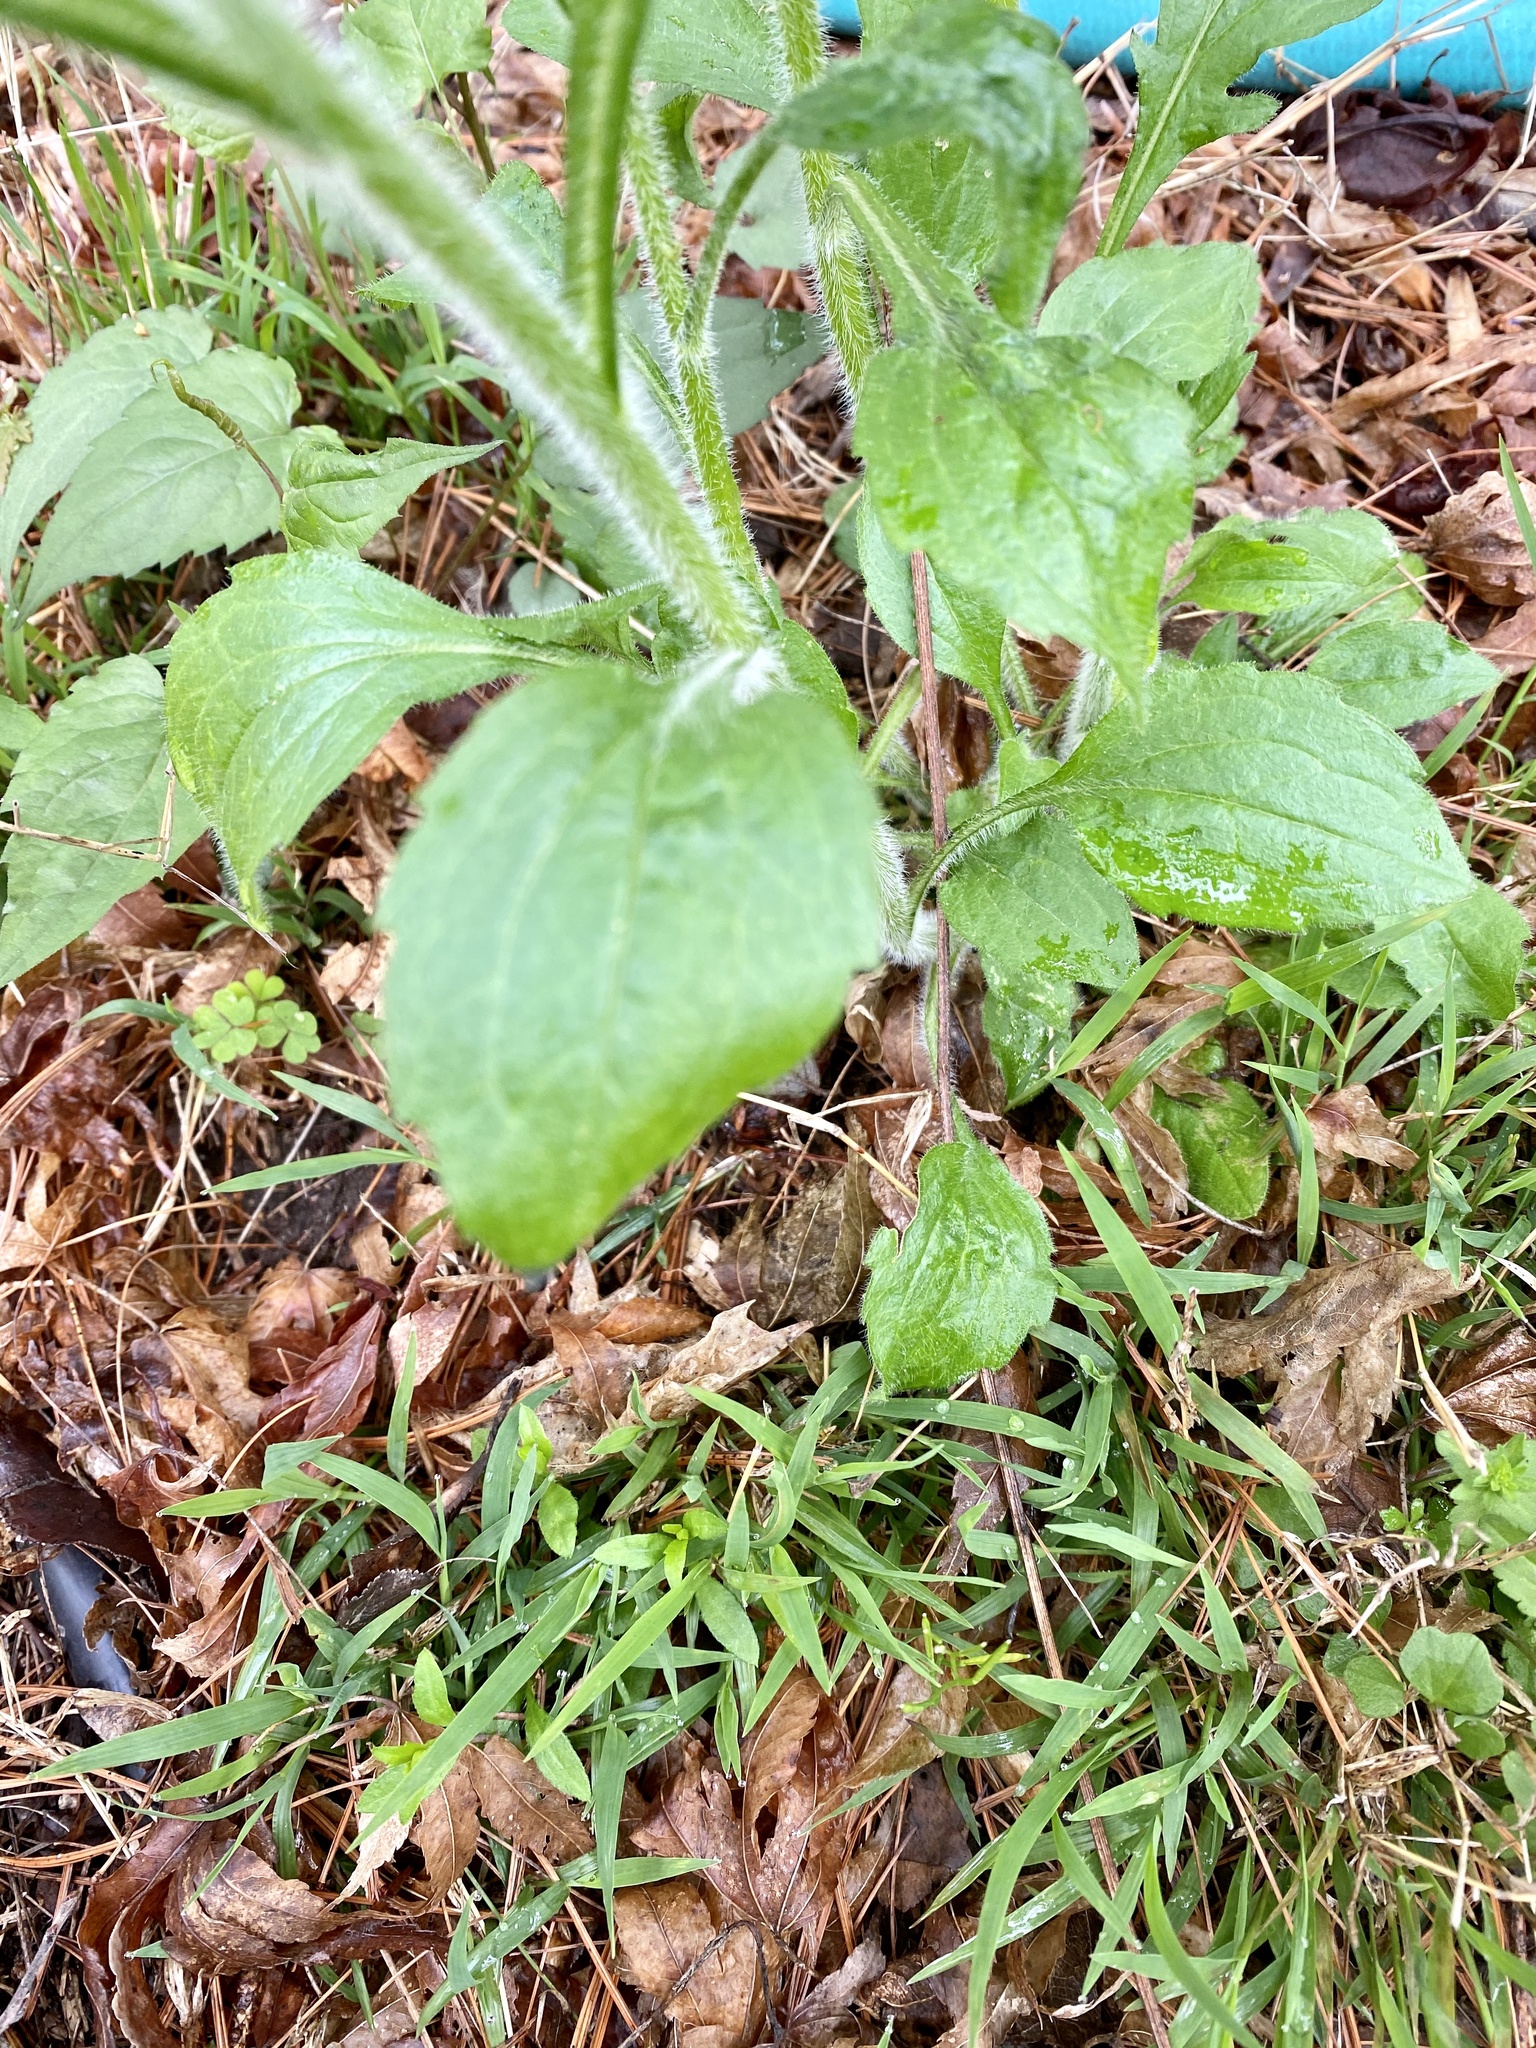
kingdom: Plantae
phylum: Tracheophyta
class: Magnoliopsida
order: Asterales
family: Asteraceae
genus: Erigeron
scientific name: Erigeron annuus
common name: Tall fleabane
